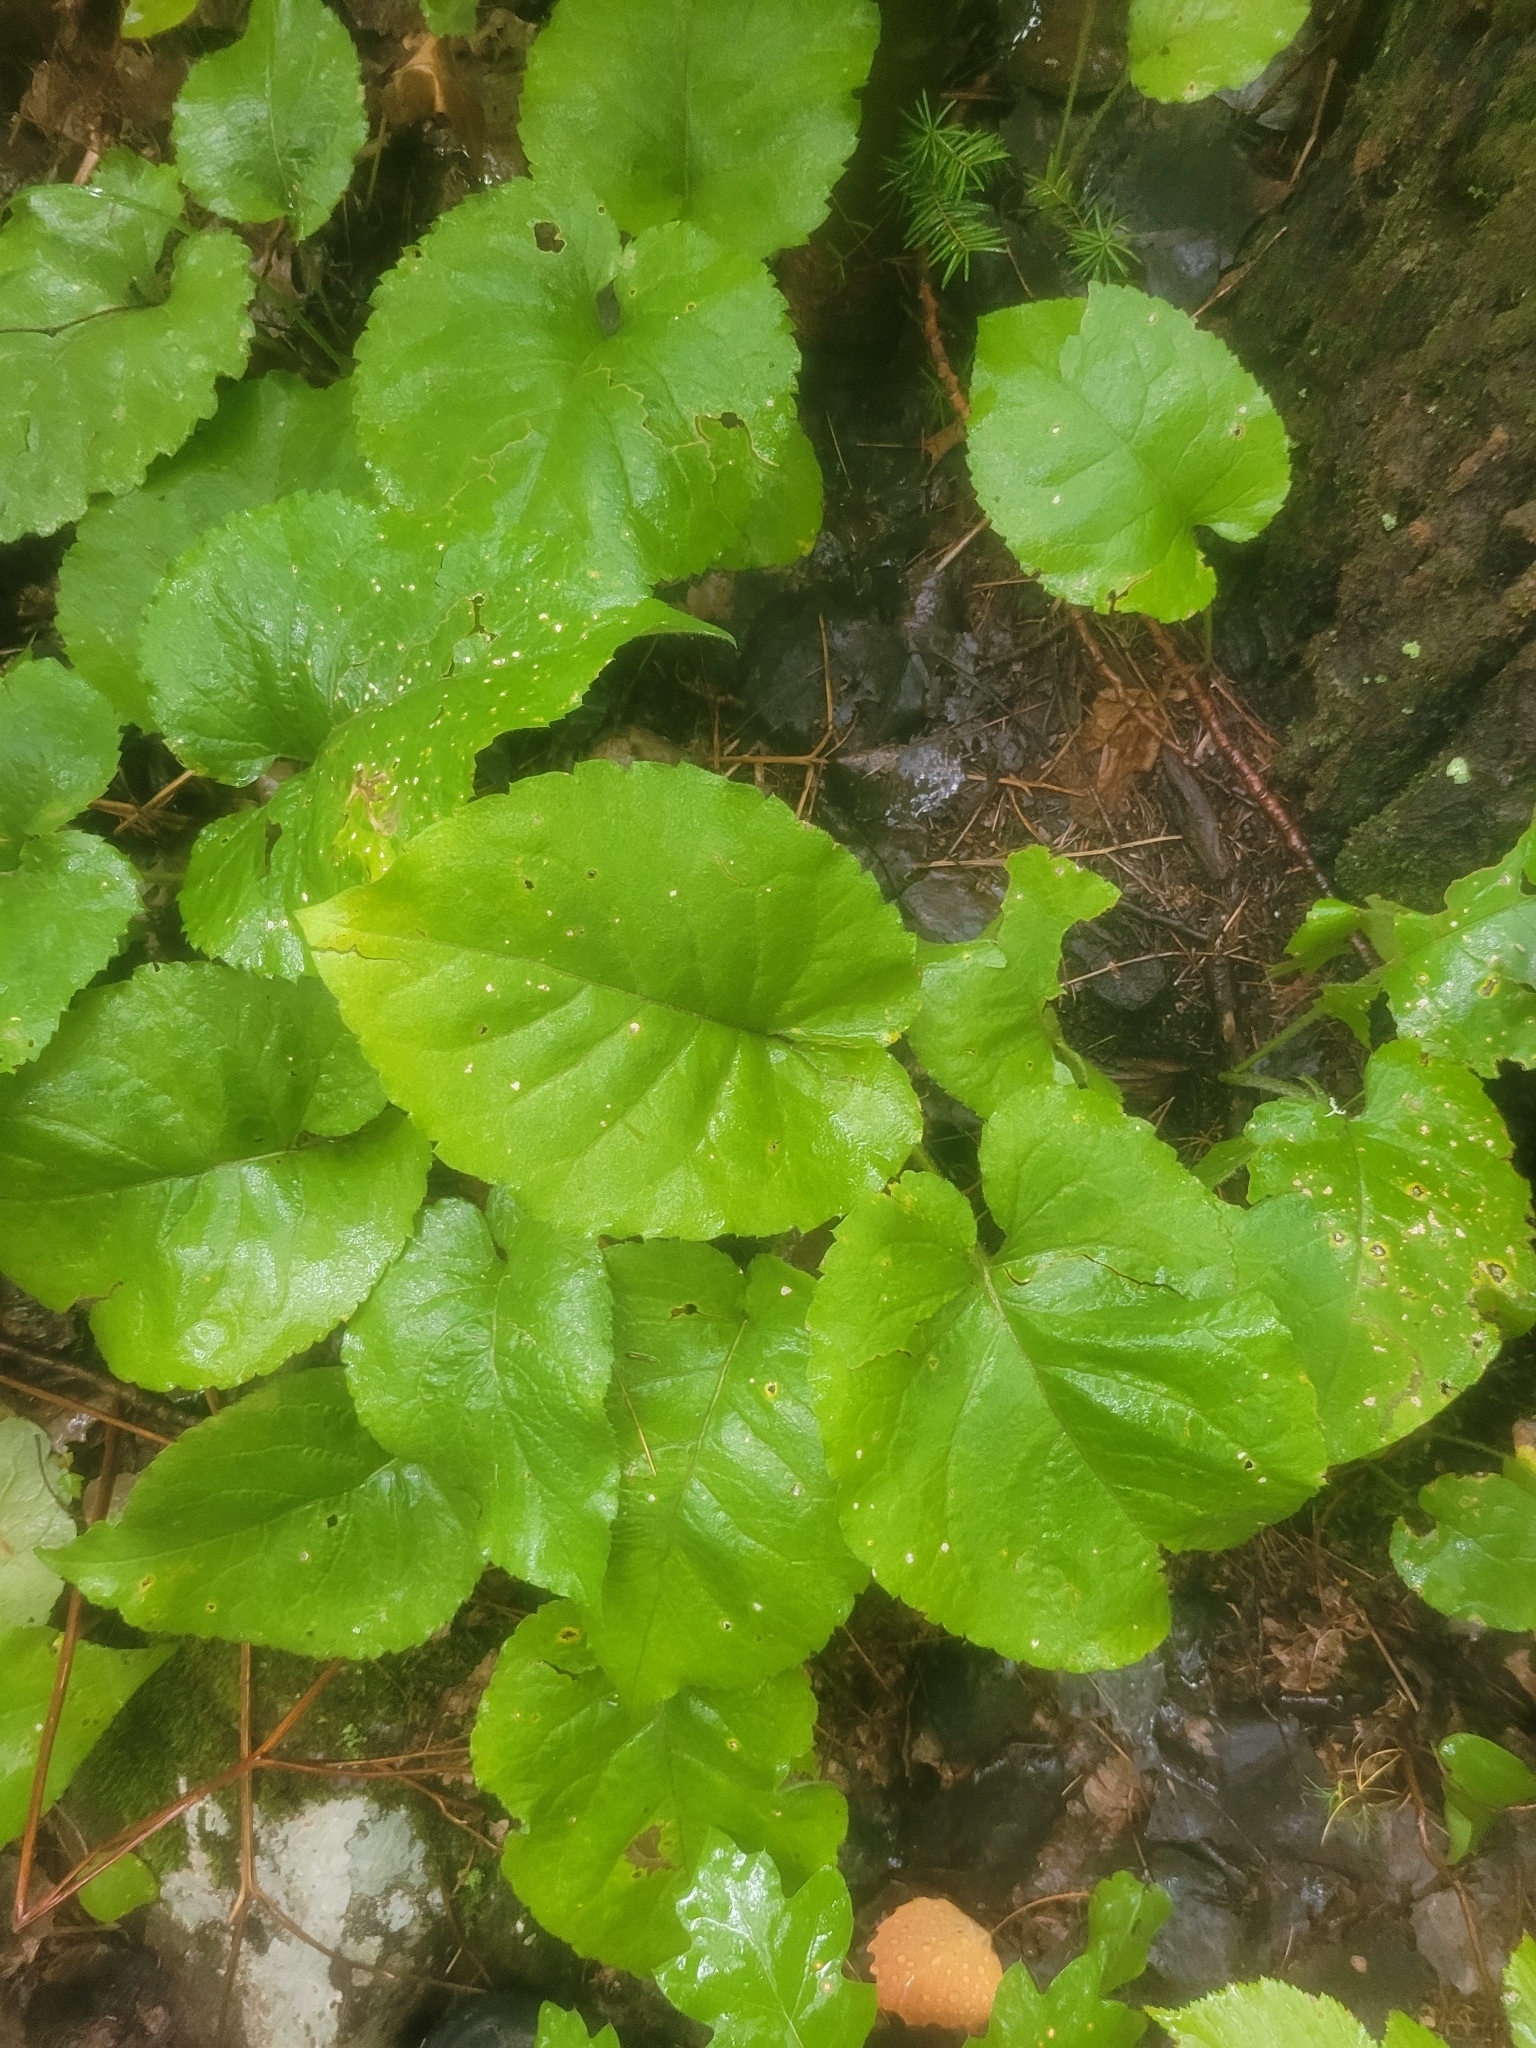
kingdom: Plantae
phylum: Tracheophyta
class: Magnoliopsida
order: Asterales
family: Asteraceae
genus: Eurybia
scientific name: Eurybia macrophylla
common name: Big-leaved aster
